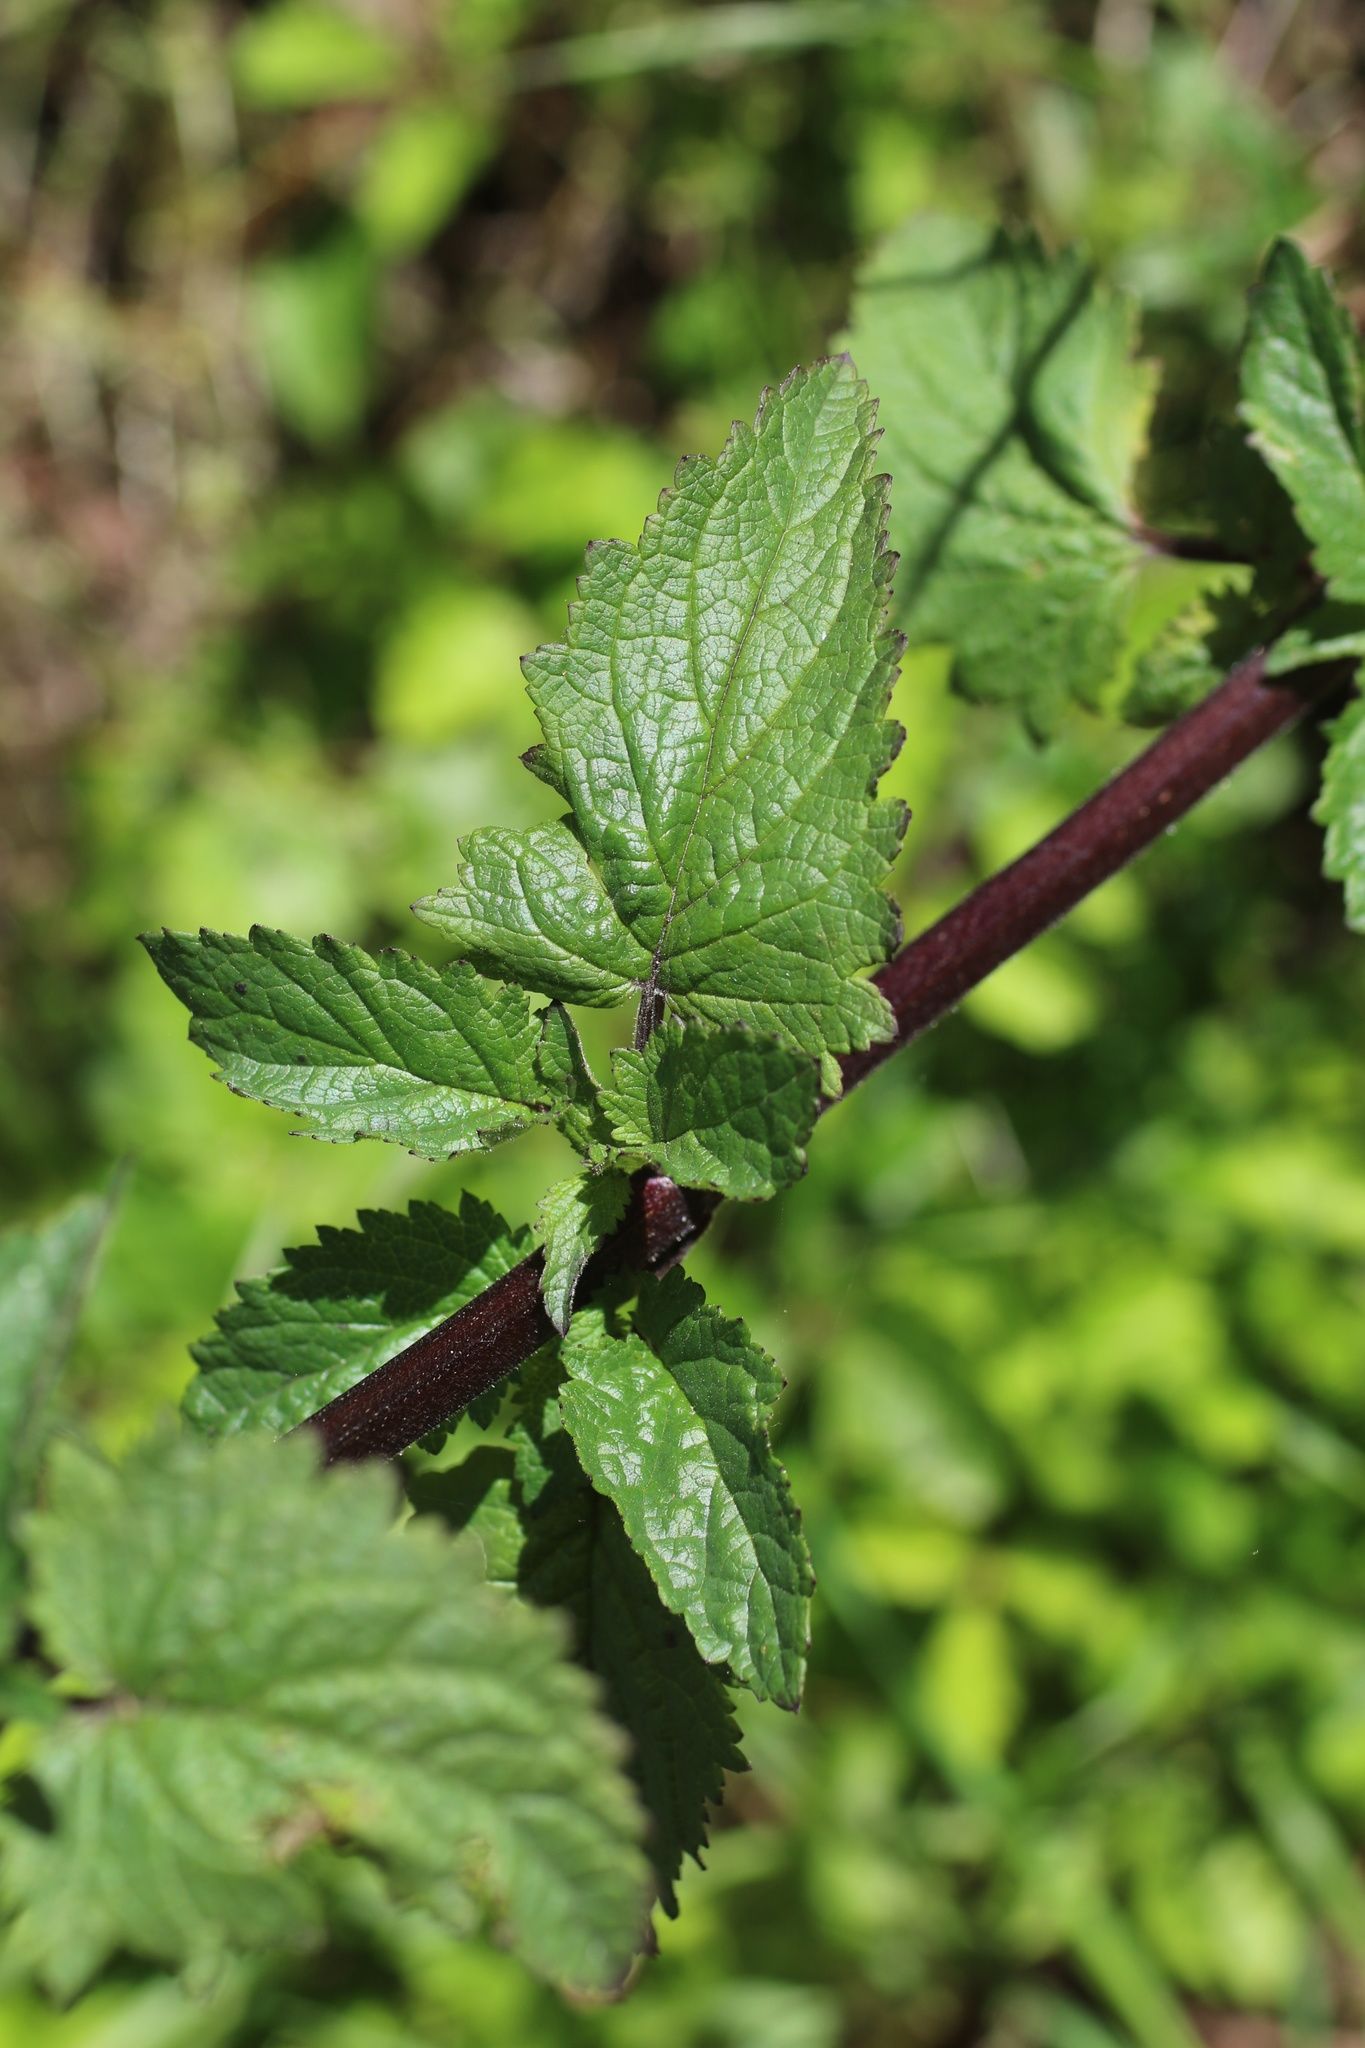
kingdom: Plantae
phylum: Tracheophyta
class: Magnoliopsida
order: Lamiales
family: Scrophulariaceae
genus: Scrophularia
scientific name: Scrophularia californica
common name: California figwort
